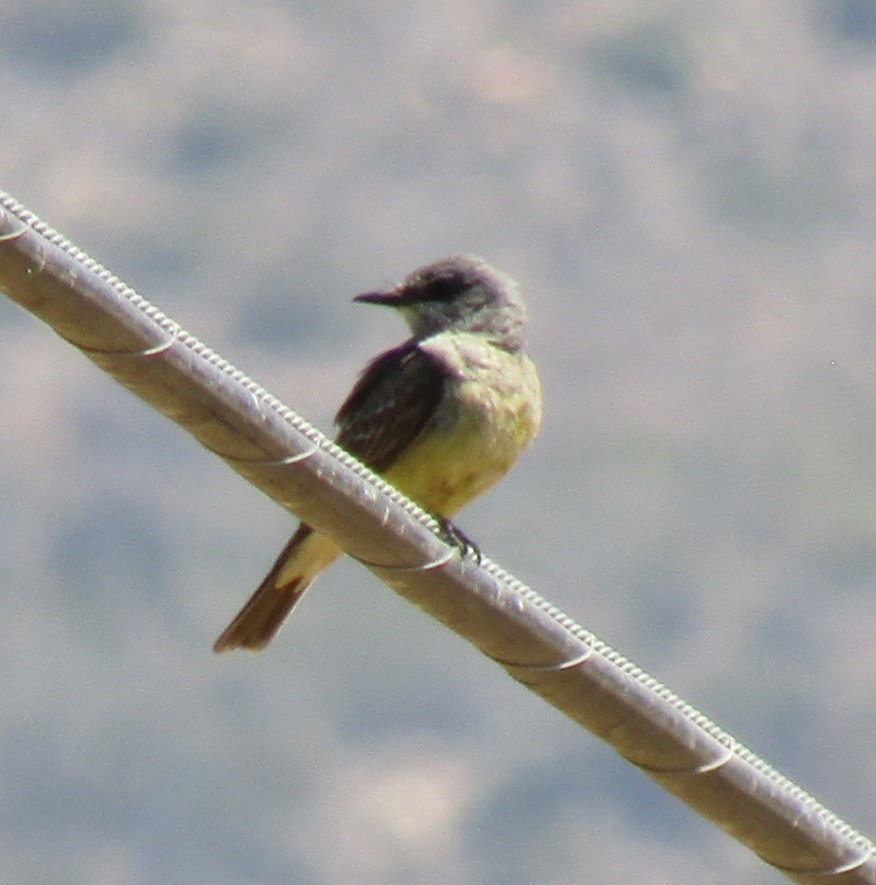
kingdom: Animalia
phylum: Chordata
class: Aves
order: Passeriformes
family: Tyrannidae
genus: Tyrannus
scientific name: Tyrannus vociferans
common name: Cassin's kingbird
